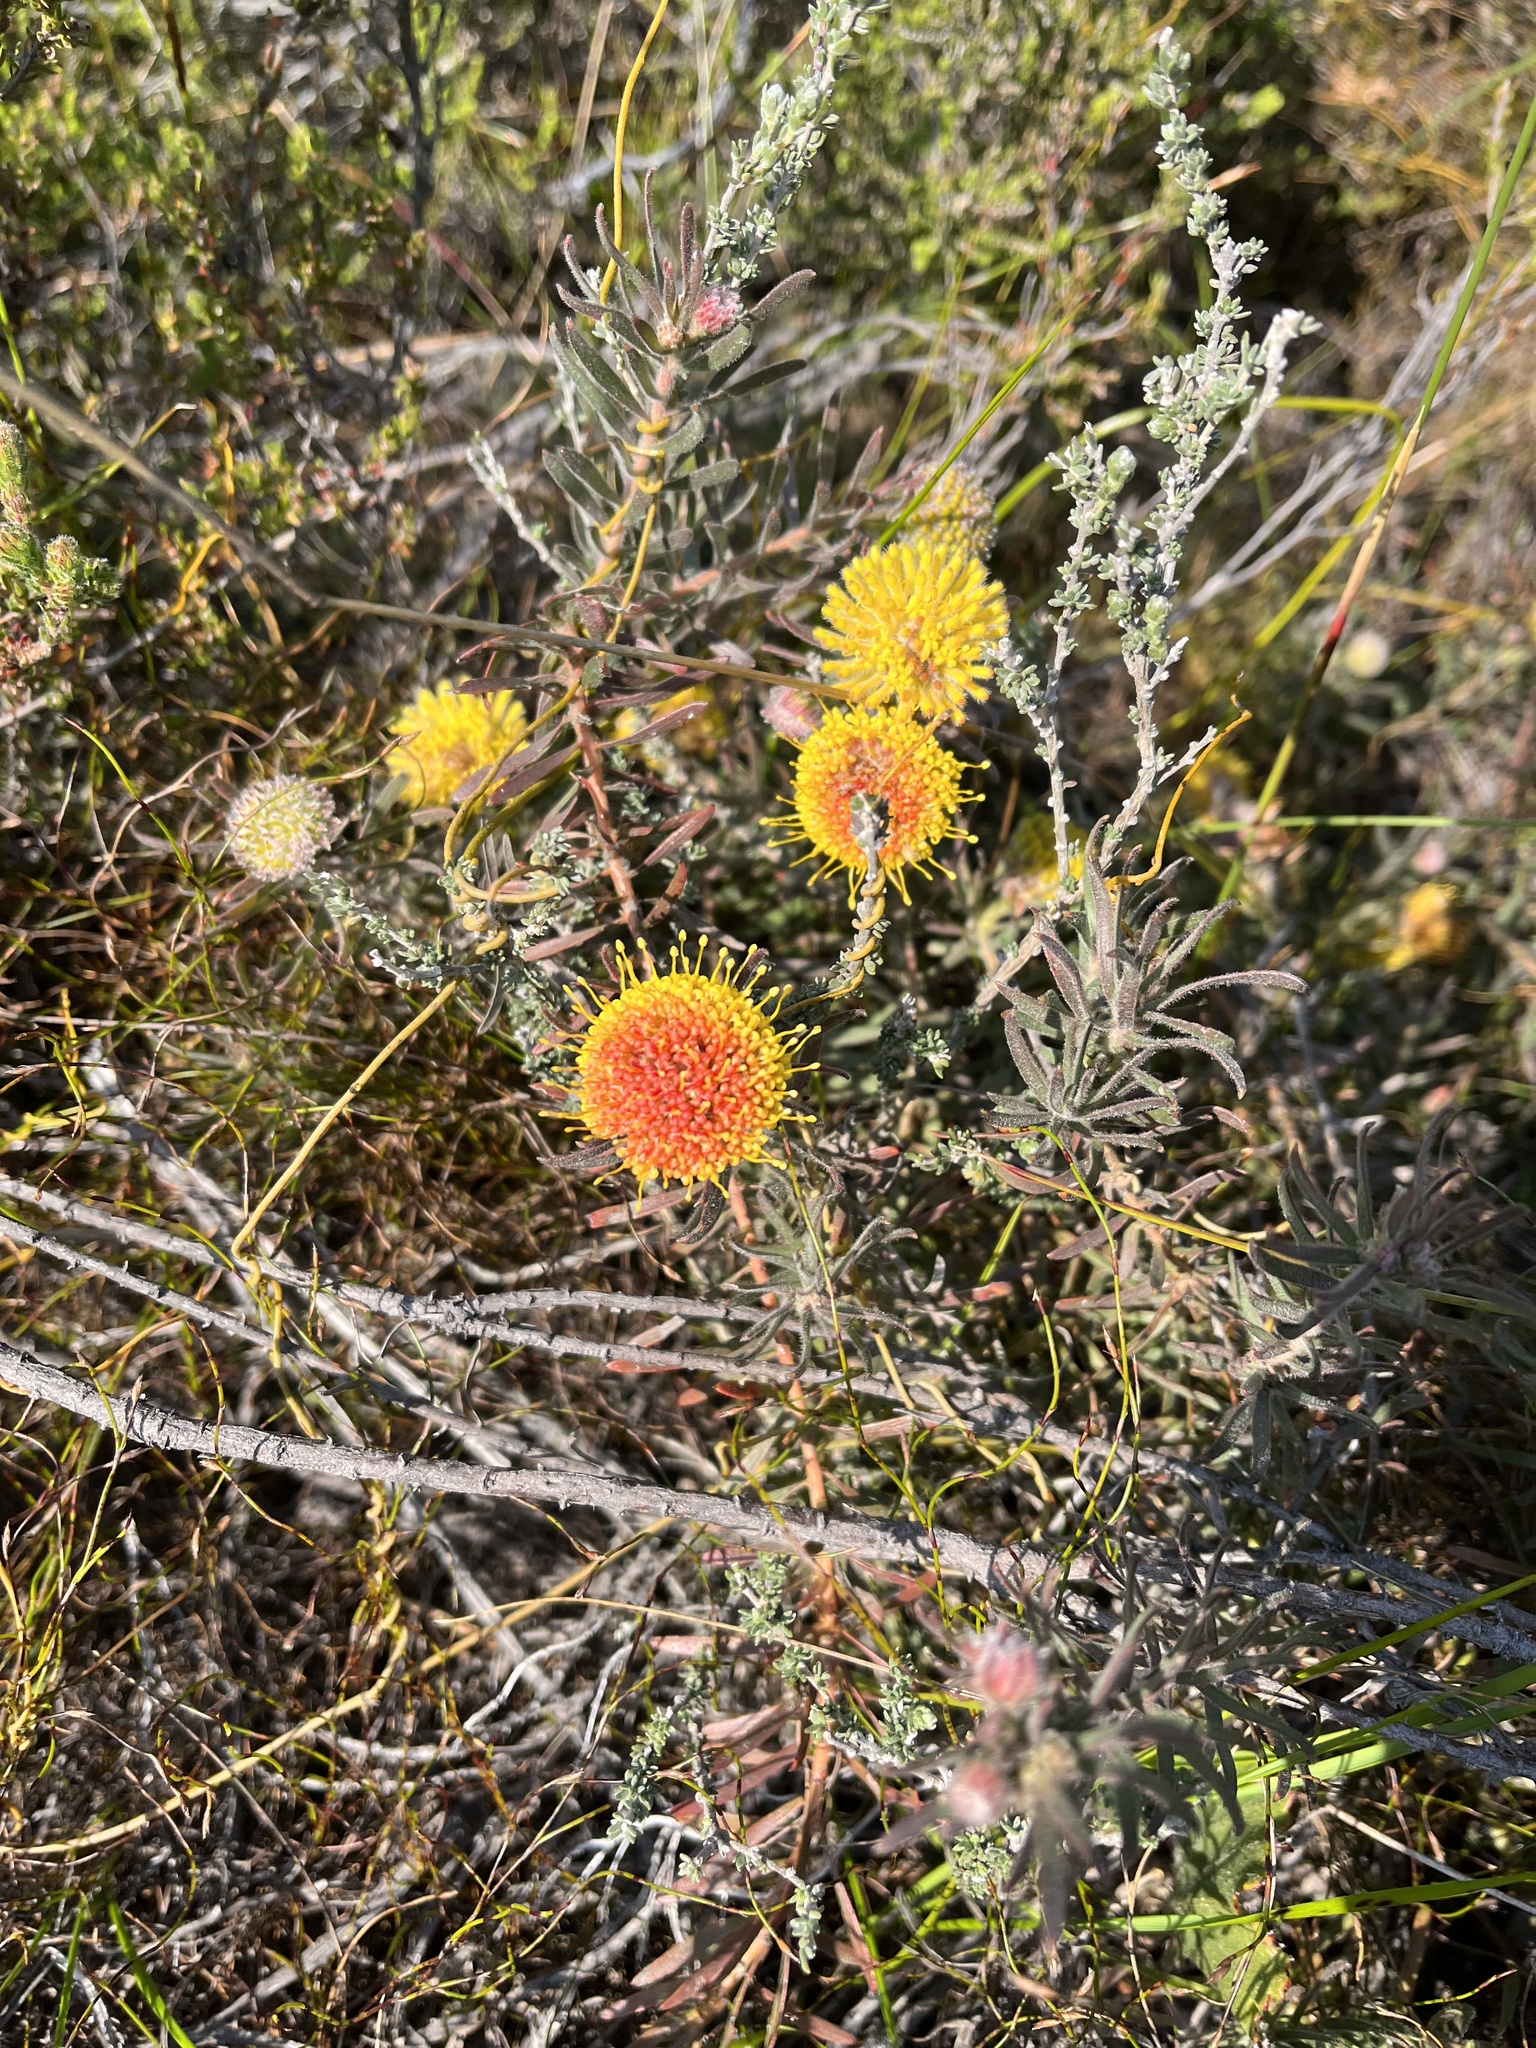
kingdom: Plantae
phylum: Tracheophyta
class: Magnoliopsida
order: Proteales
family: Proteaceae
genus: Leucospermum
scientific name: Leucospermum prostratum
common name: Yellow-trailing pincushion
